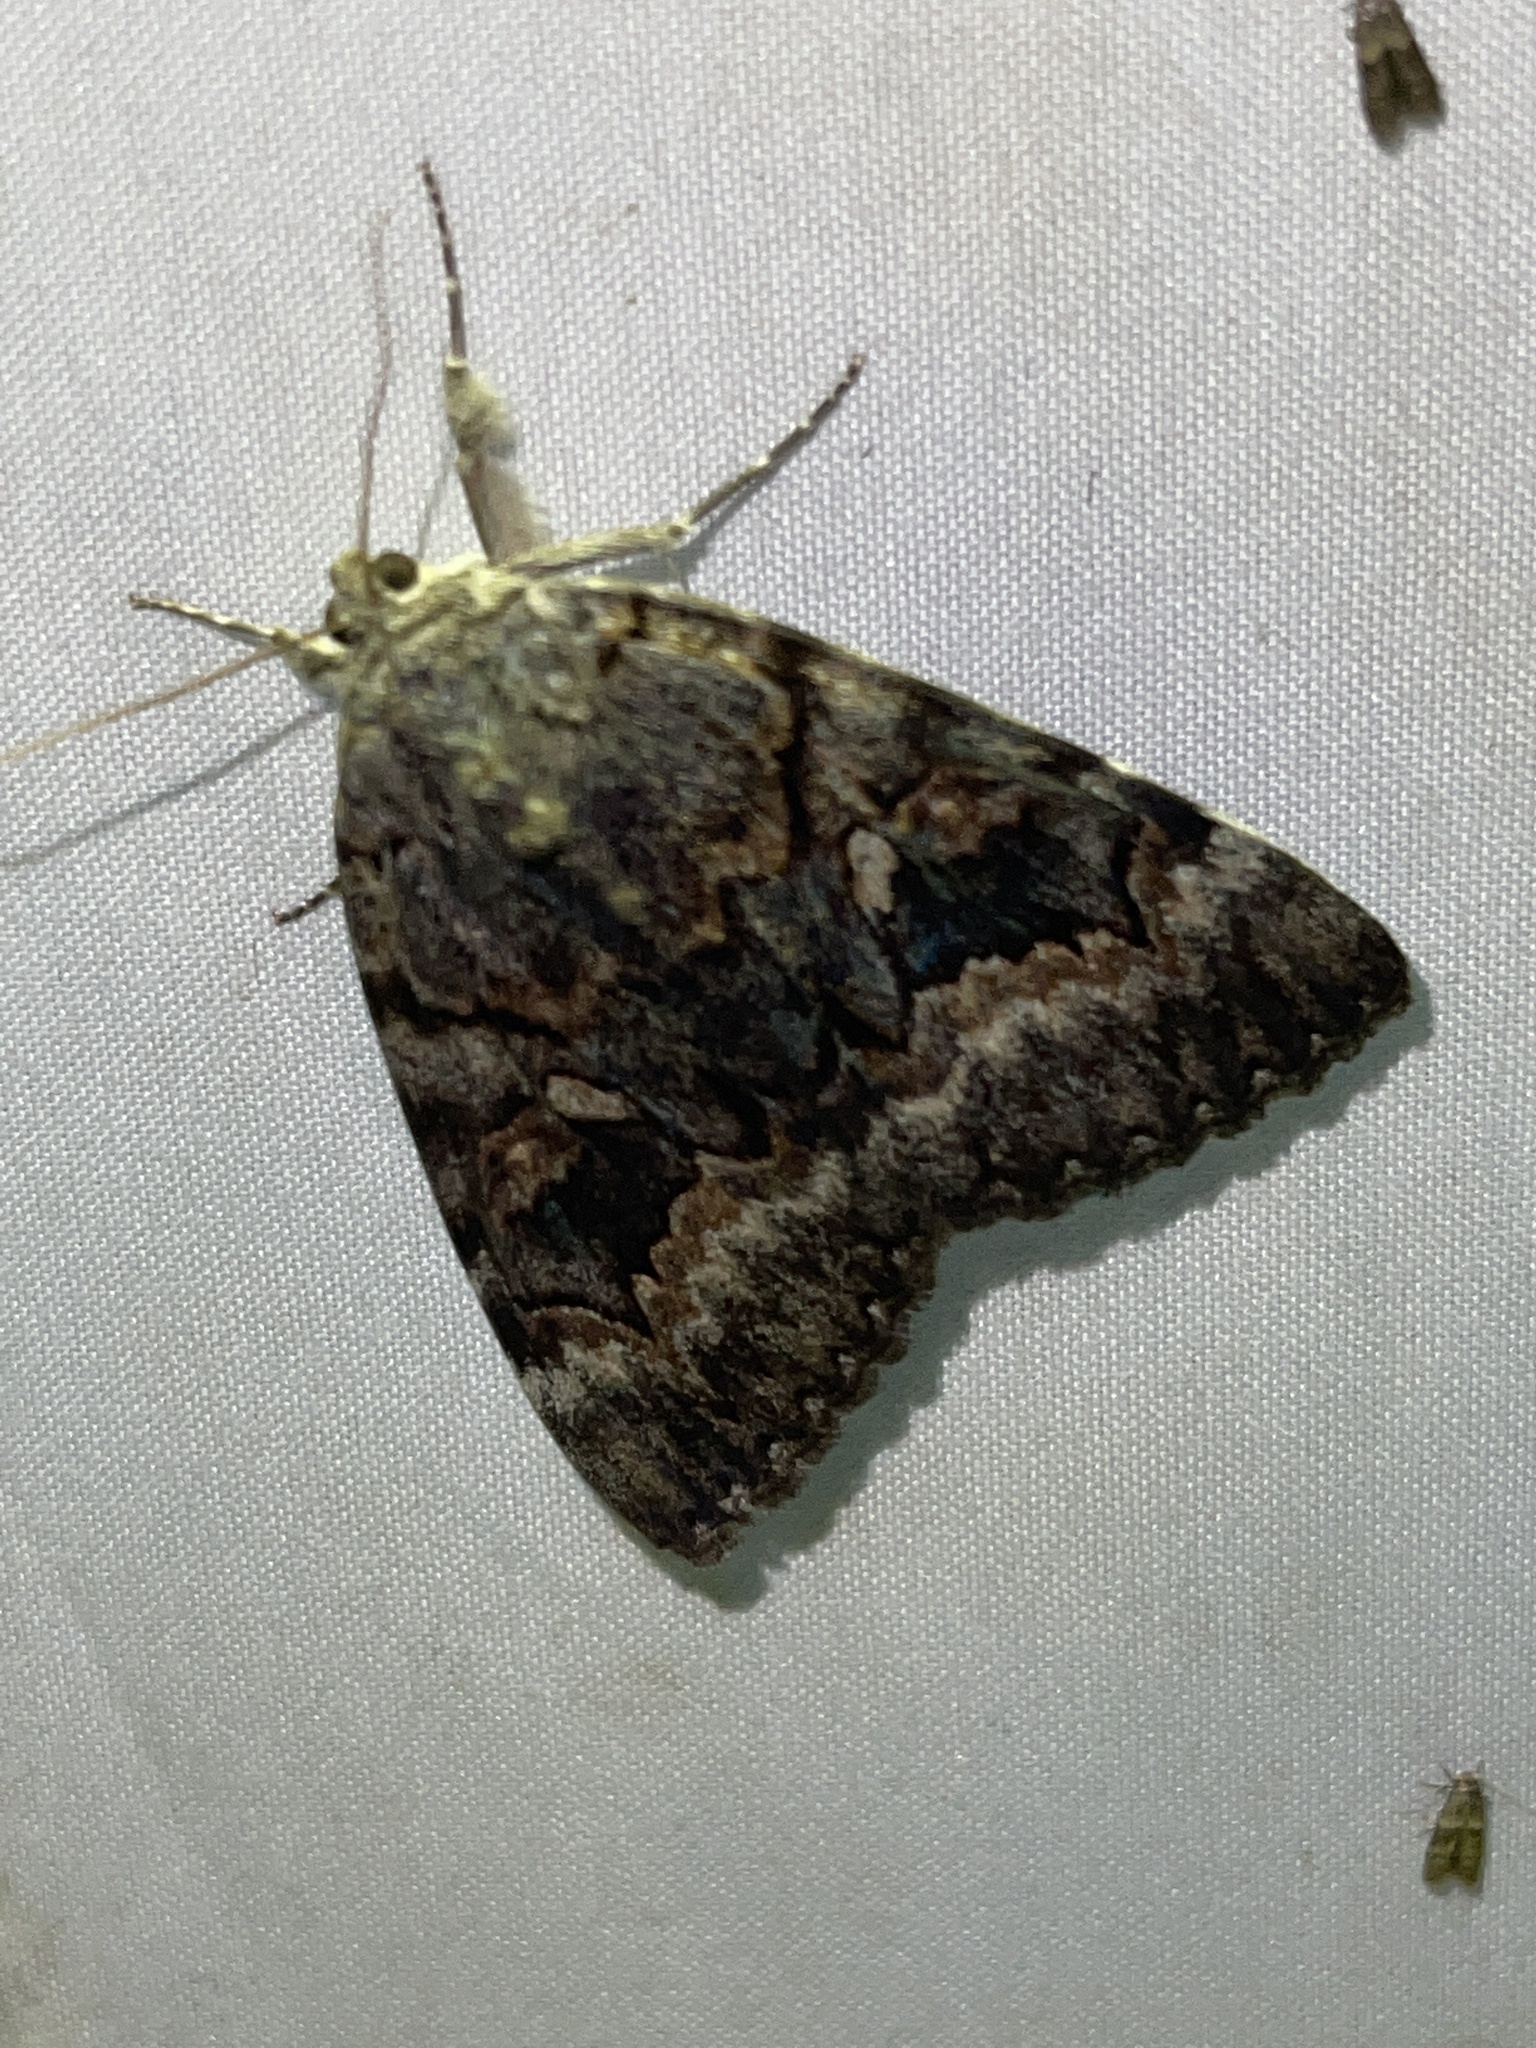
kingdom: Animalia
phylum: Arthropoda
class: Insecta
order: Lepidoptera
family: Erebidae
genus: Catocala
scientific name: Catocala epione
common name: Epione underwing
